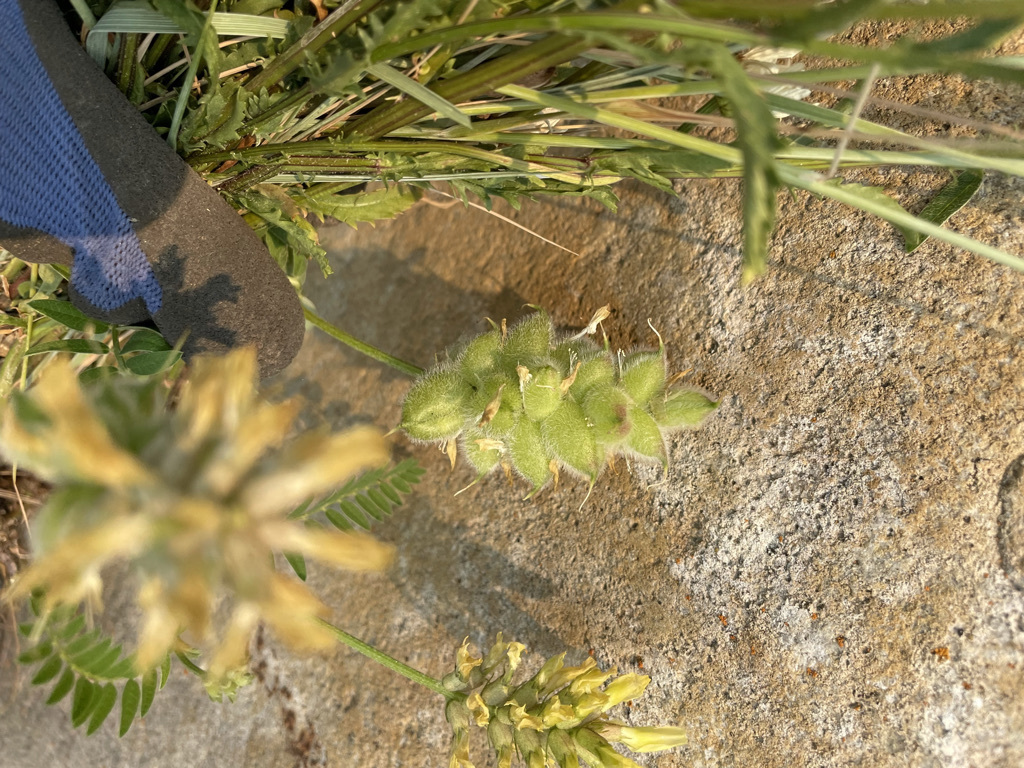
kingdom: Plantae
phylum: Tracheophyta
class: Magnoliopsida
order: Fabales
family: Fabaceae
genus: Astragalus
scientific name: Astragalus cicer
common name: Chick-pea milk-vetch
